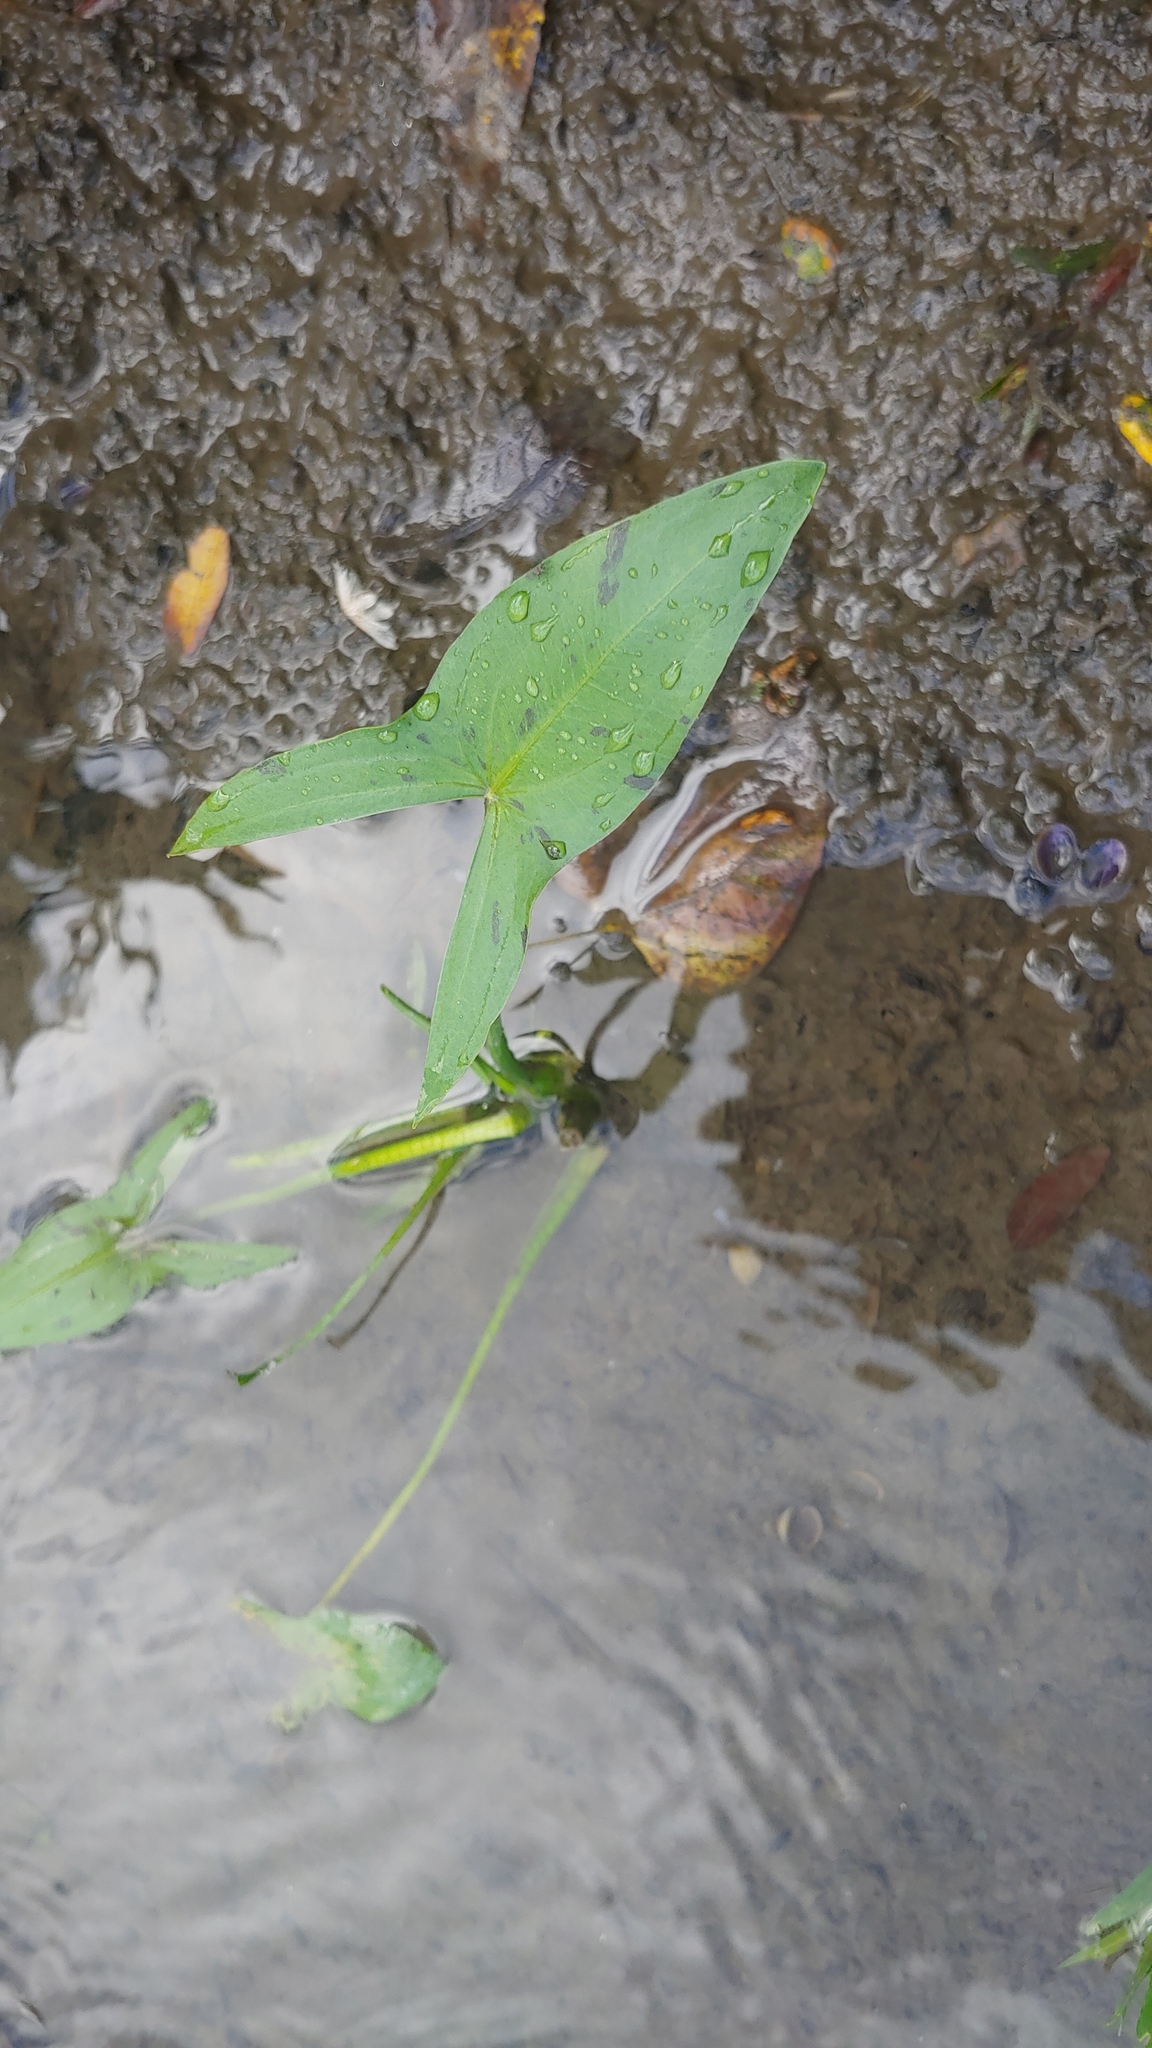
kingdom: Plantae
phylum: Tracheophyta
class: Liliopsida
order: Alismatales
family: Alismataceae
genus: Sagittaria
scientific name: Sagittaria latifolia
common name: Duck-potato
